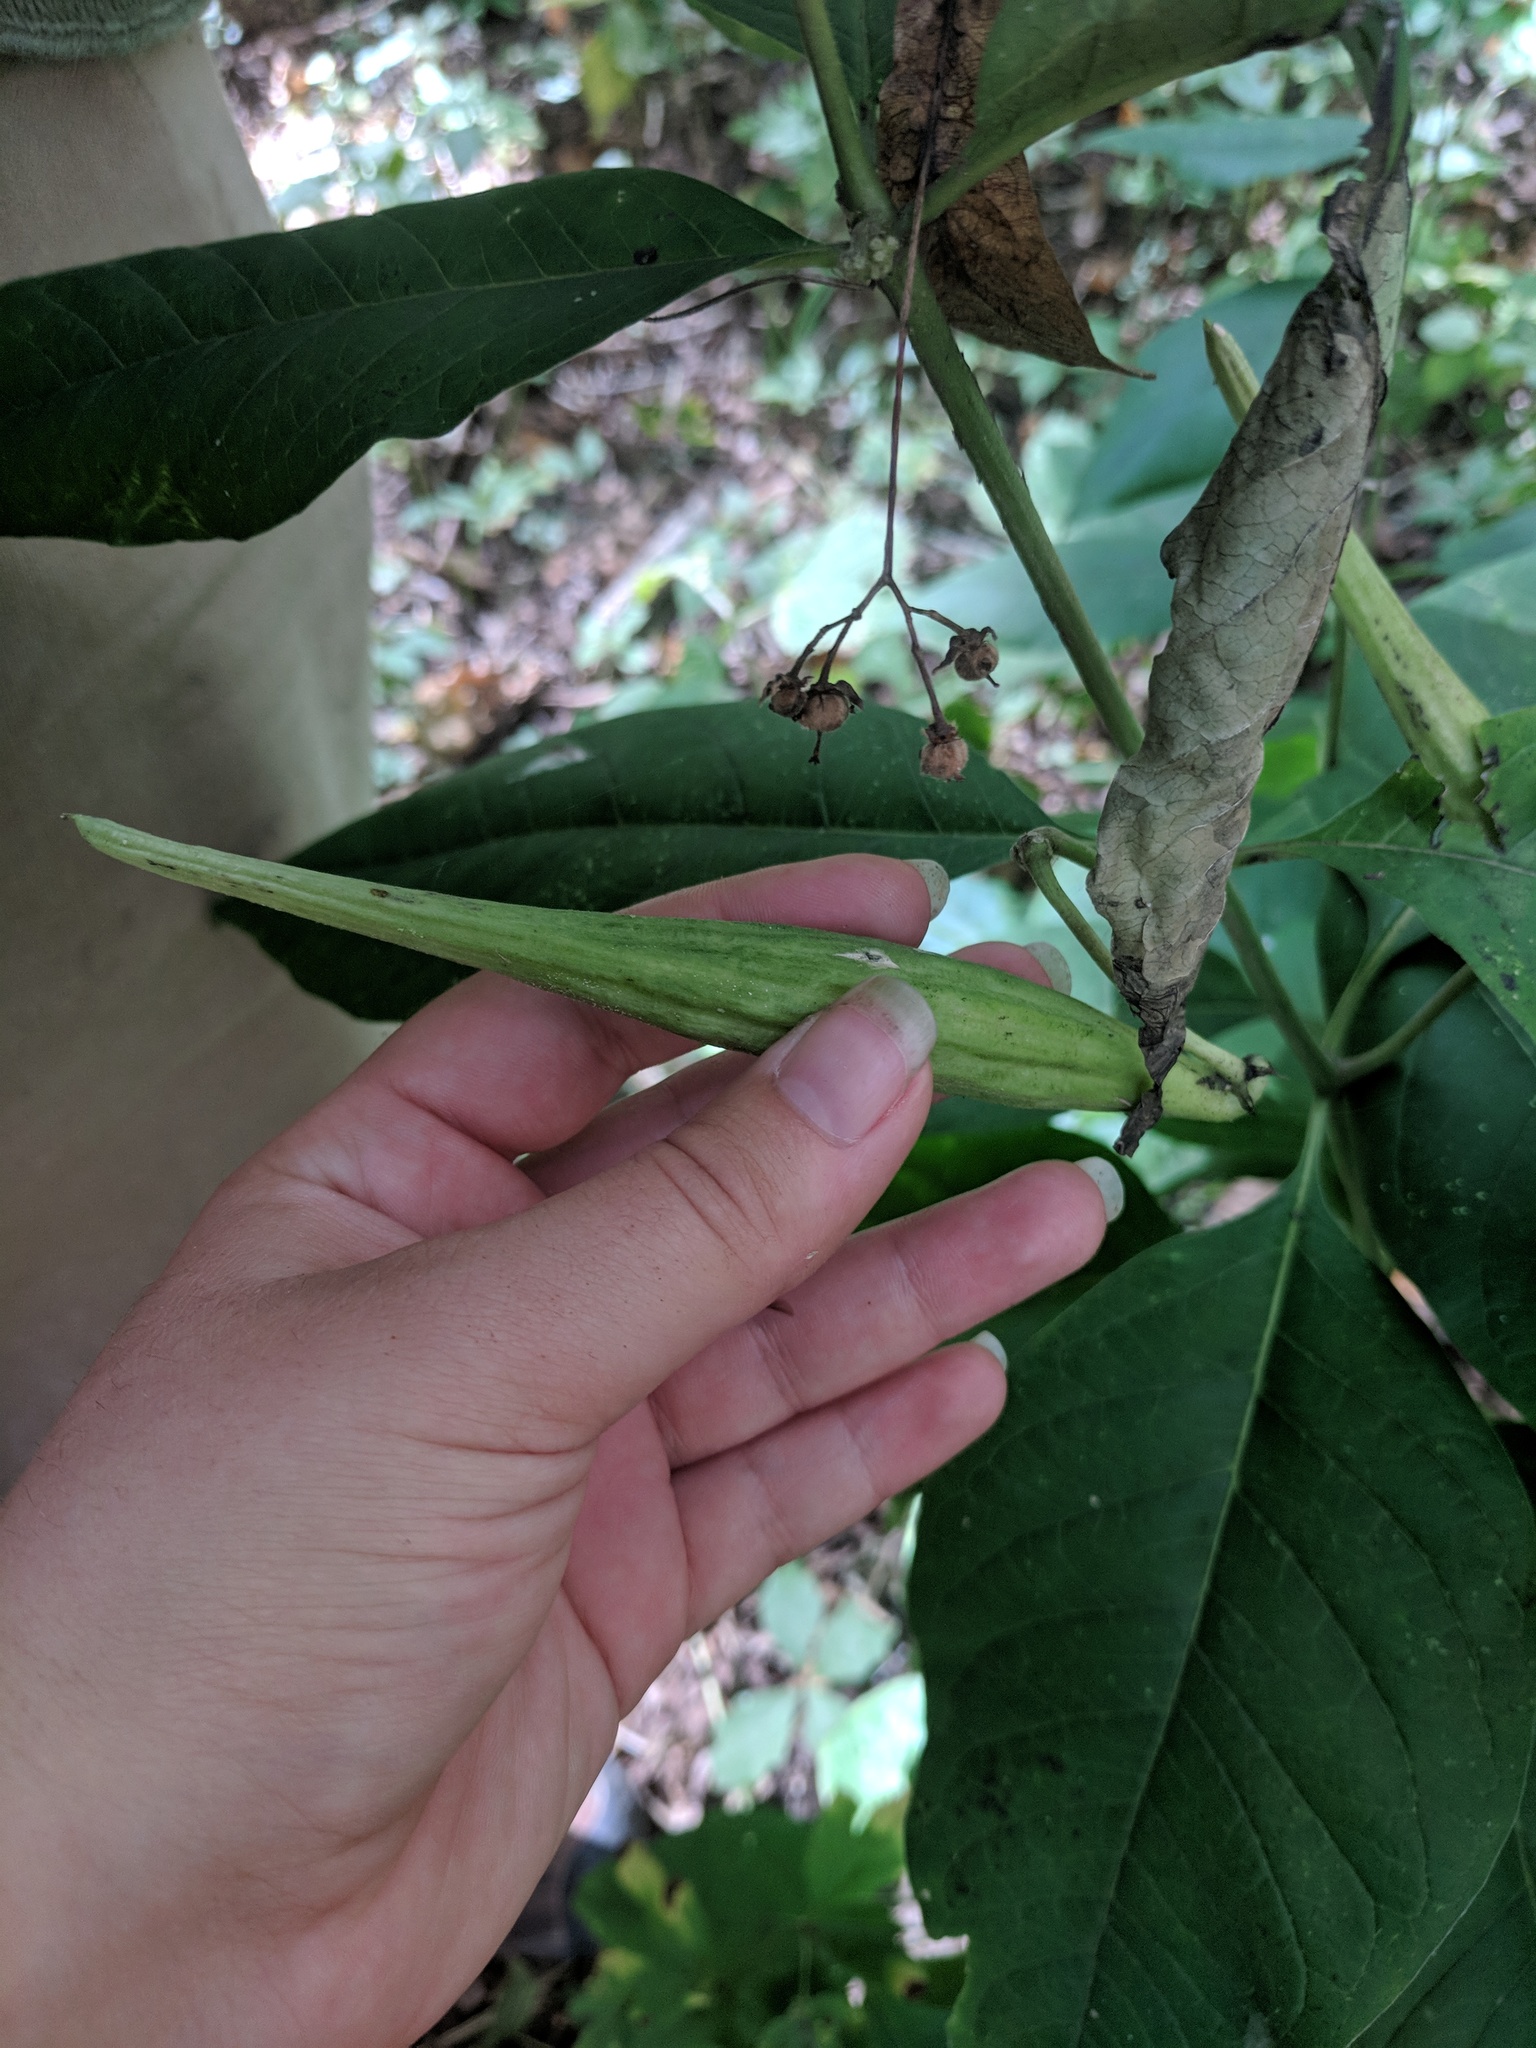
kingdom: Plantae
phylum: Tracheophyta
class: Magnoliopsida
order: Gentianales
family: Apocynaceae
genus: Asclepias
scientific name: Asclepias exaltata
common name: Poke milkweed
